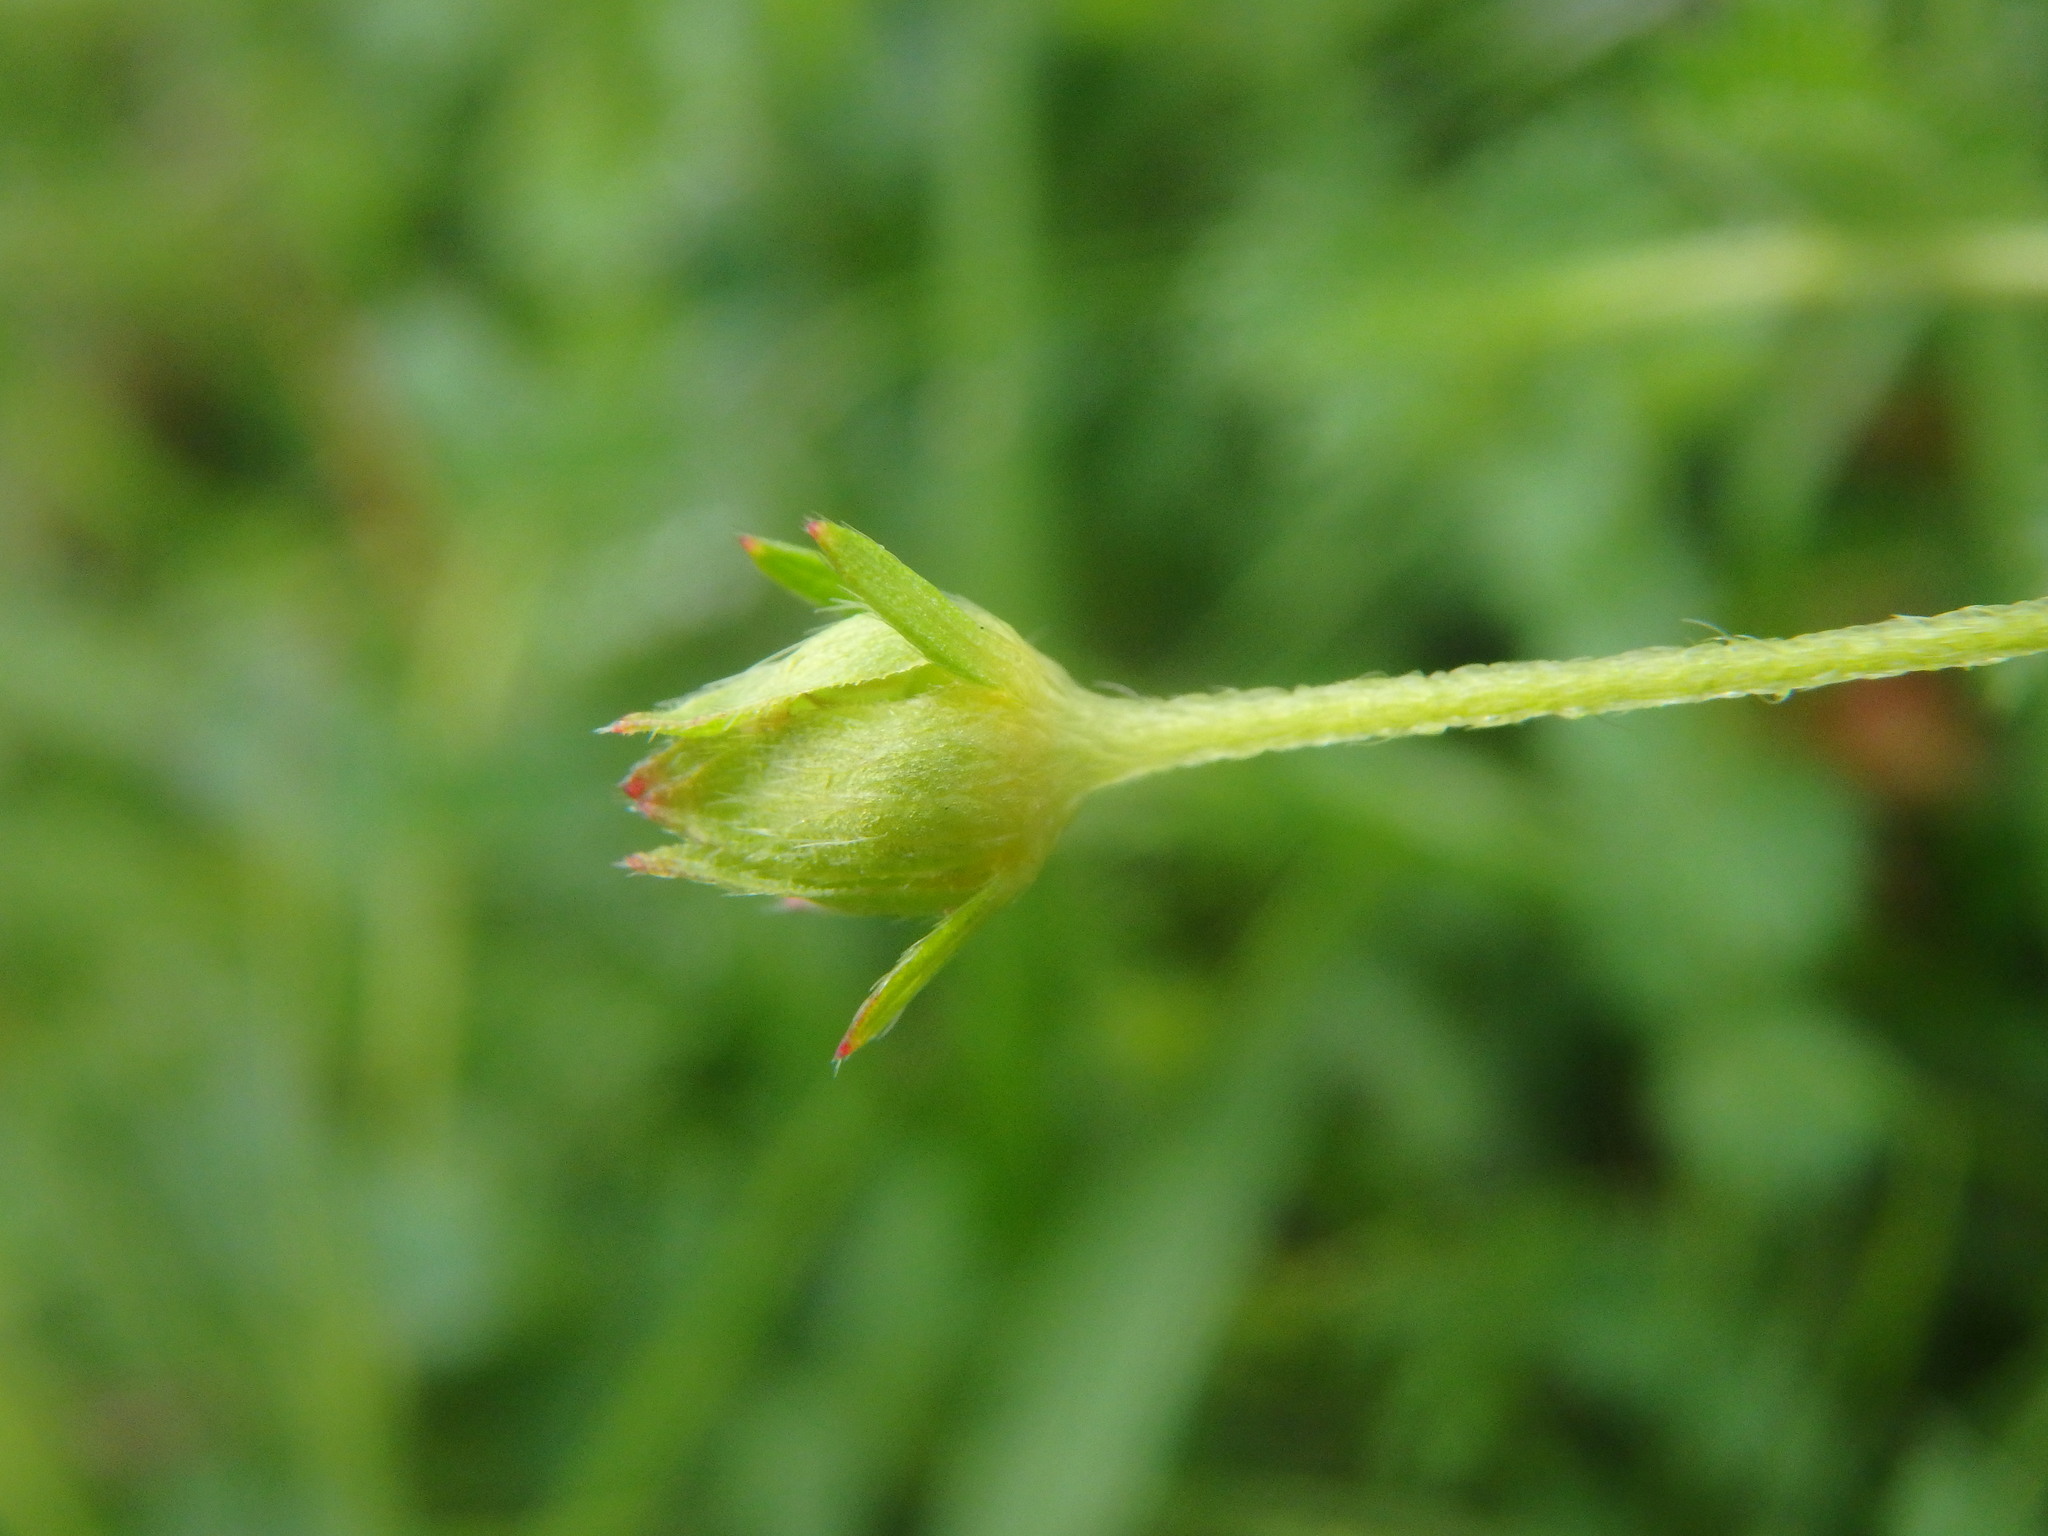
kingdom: Plantae
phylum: Tracheophyta
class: Magnoliopsida
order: Rosales
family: Rosaceae
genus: Potentilla
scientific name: Potentilla erecta
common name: Tormentil
